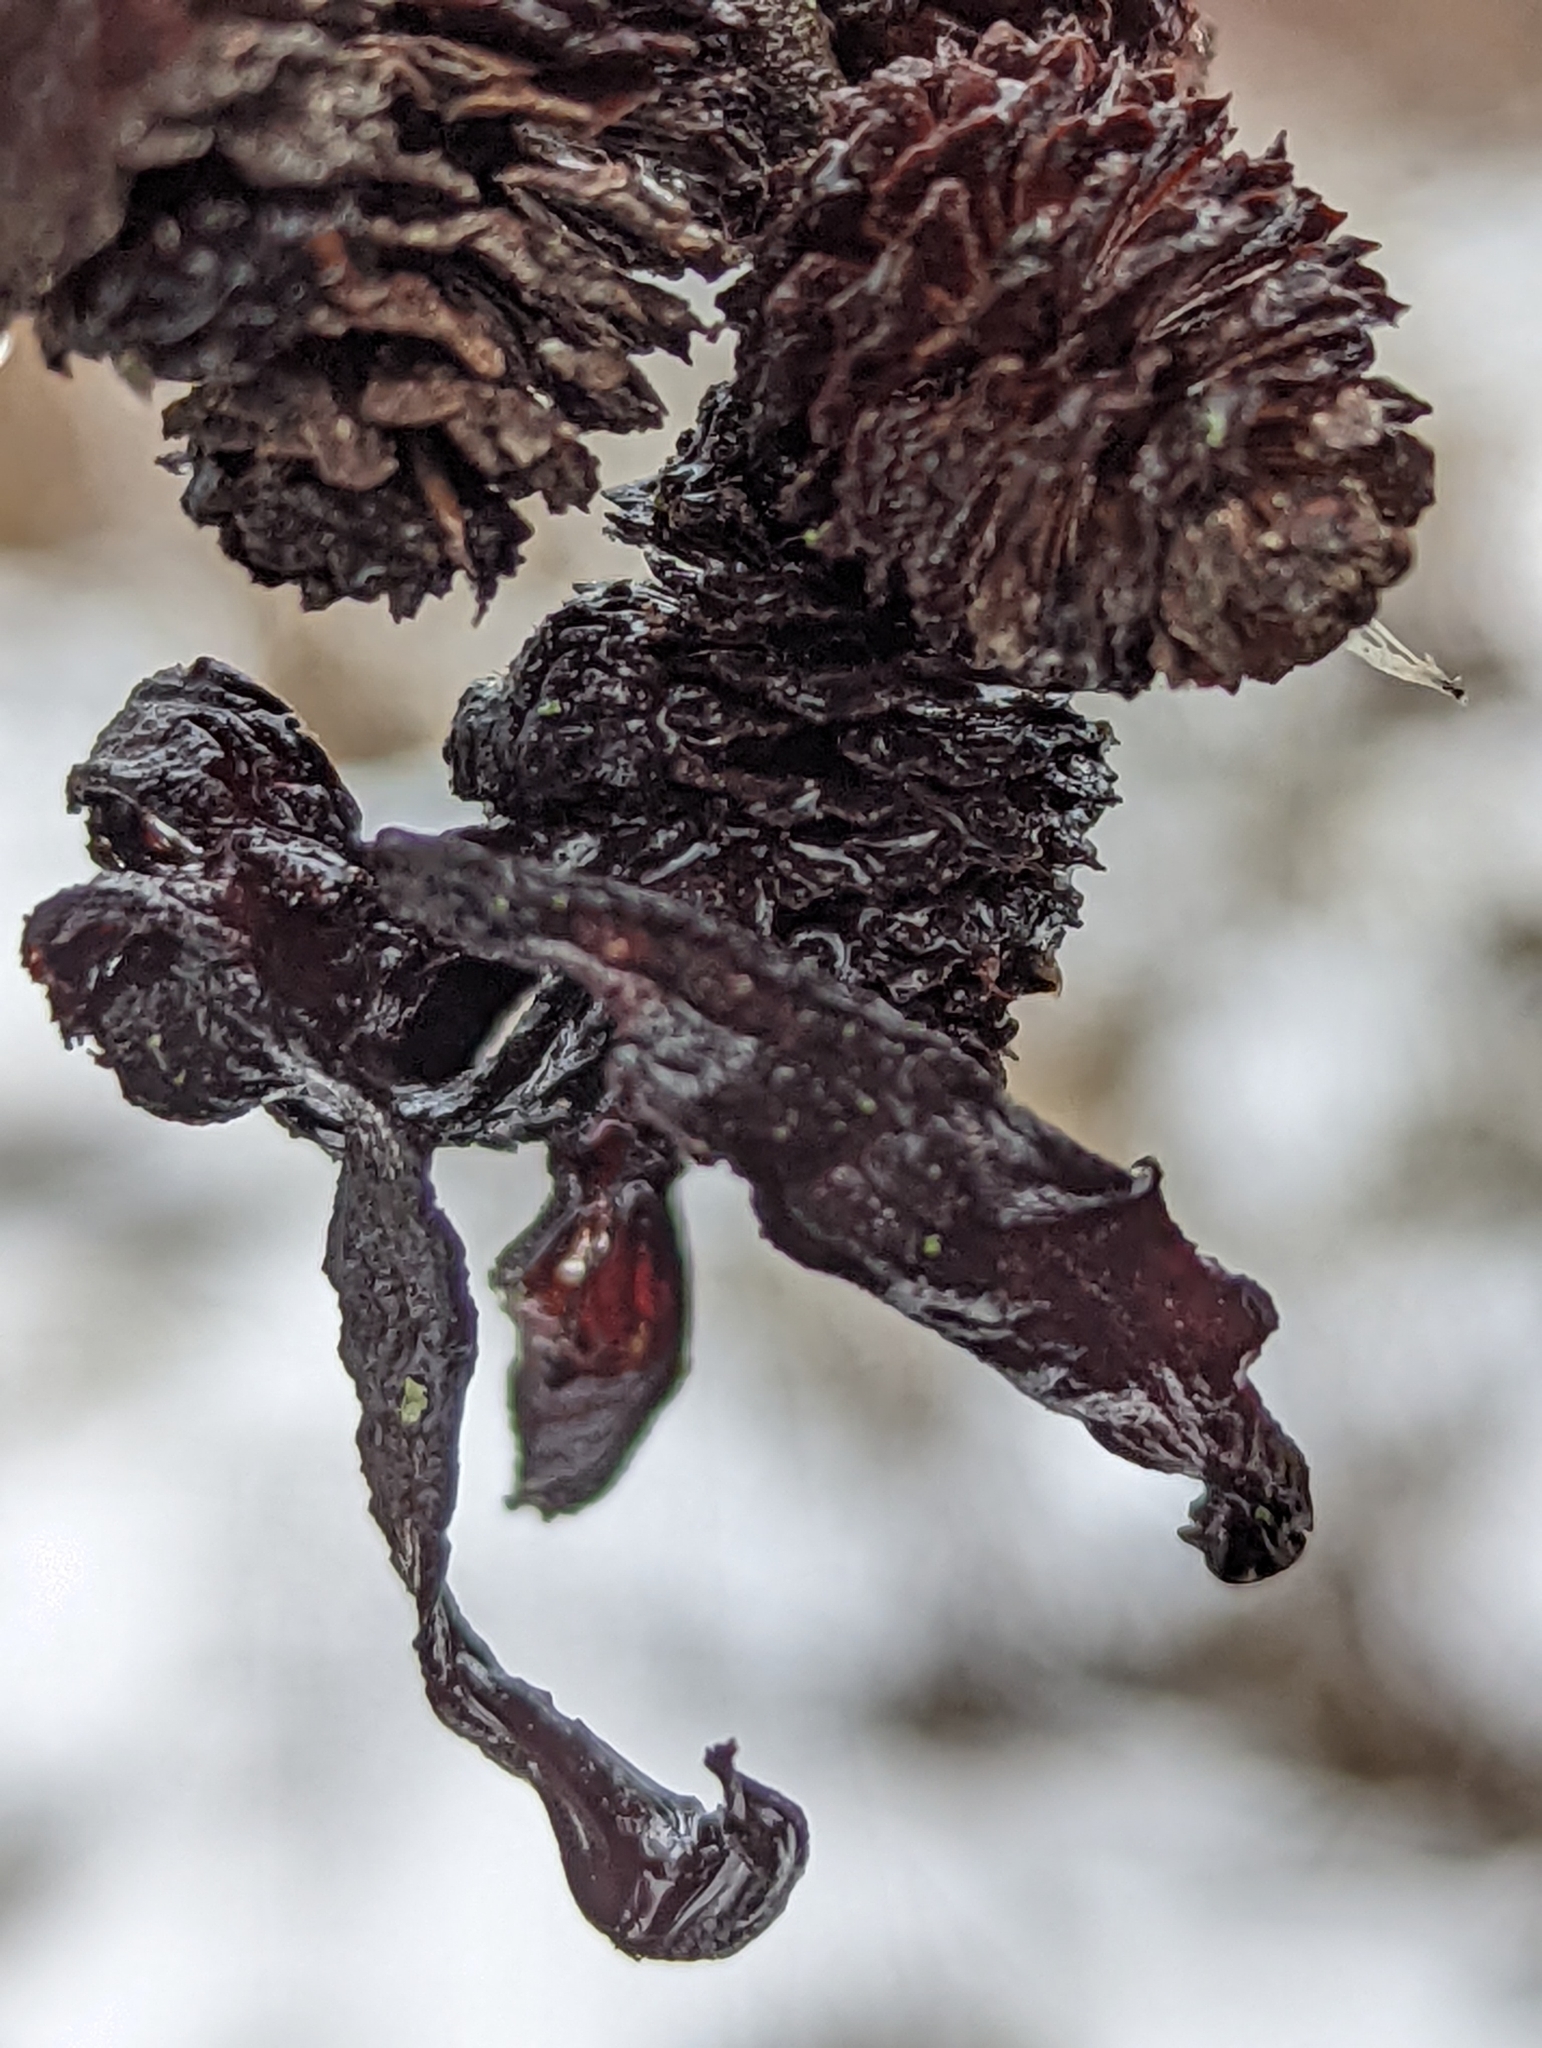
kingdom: Fungi
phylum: Ascomycota
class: Taphrinomycetes
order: Taphrinales
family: Taphrinaceae
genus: Taphrina
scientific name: Taphrina robinsoniana
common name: Eastern american alder tongue gall fungus
